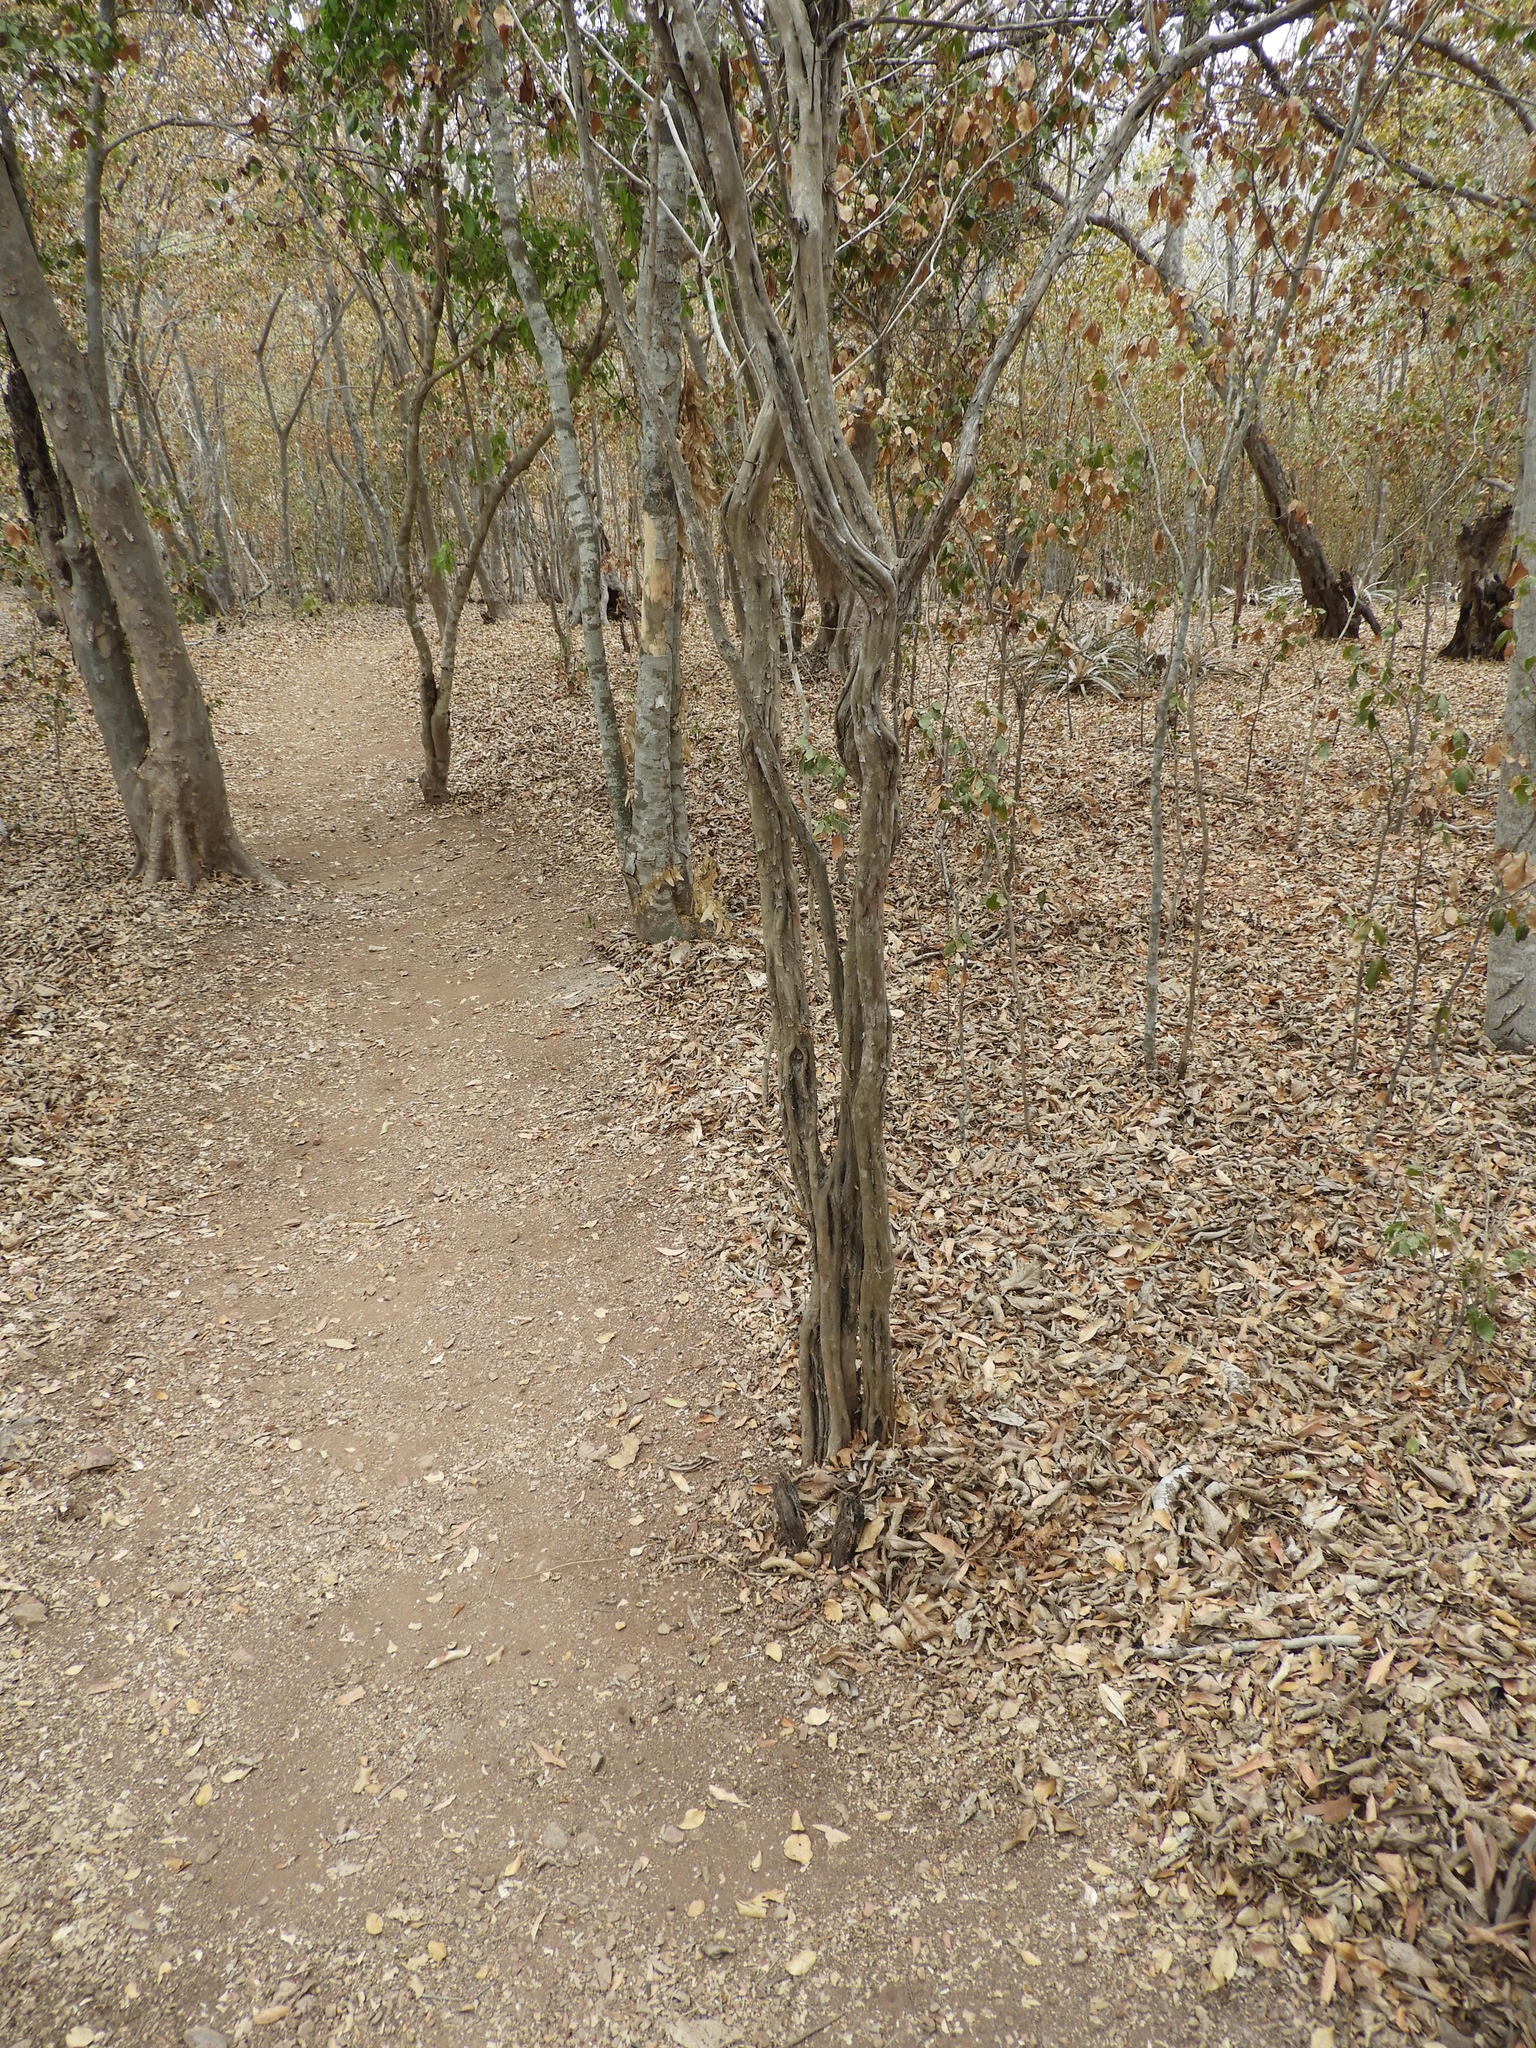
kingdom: Plantae
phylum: Tracheophyta
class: Magnoliopsida
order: Rosales
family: Rhamnaceae
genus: Colubrina
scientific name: Colubrina heteroneura
